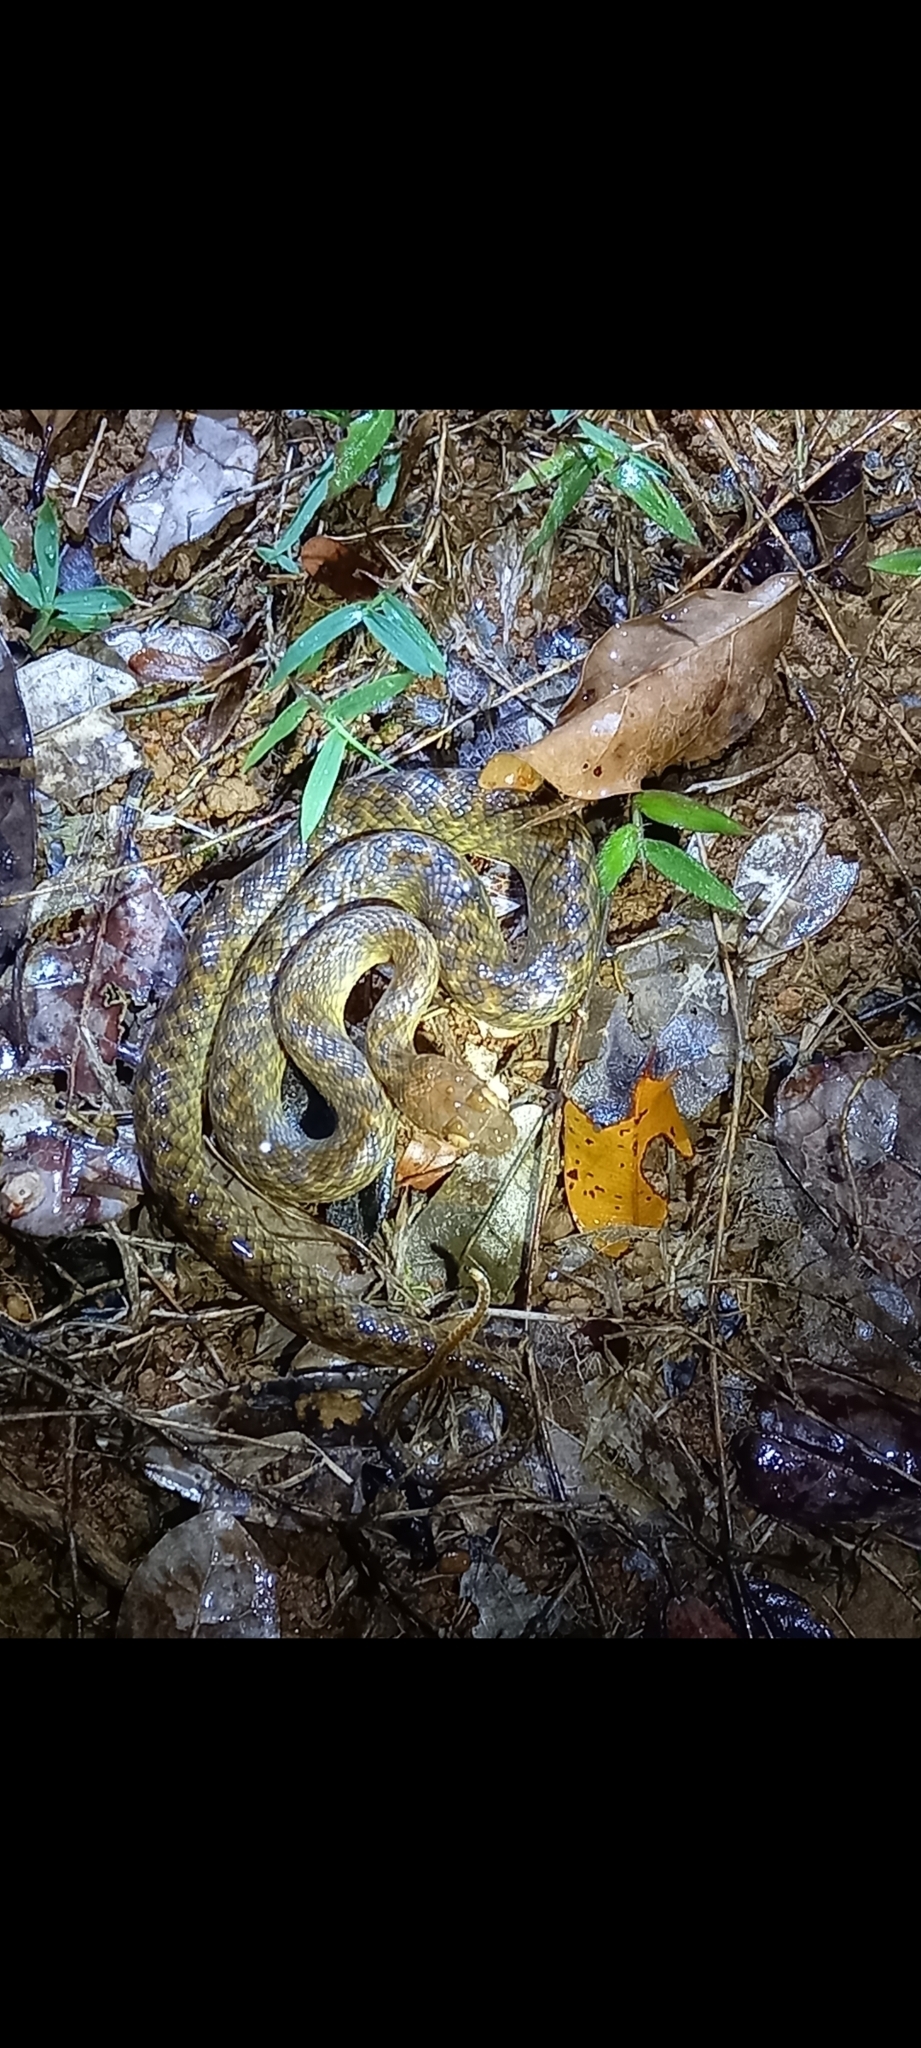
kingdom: Animalia
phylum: Chordata
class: Squamata
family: Pseudoxyrhophiidae
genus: Madagascarophis
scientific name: Madagascarophis colubrinus
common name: Madagascar night snake
